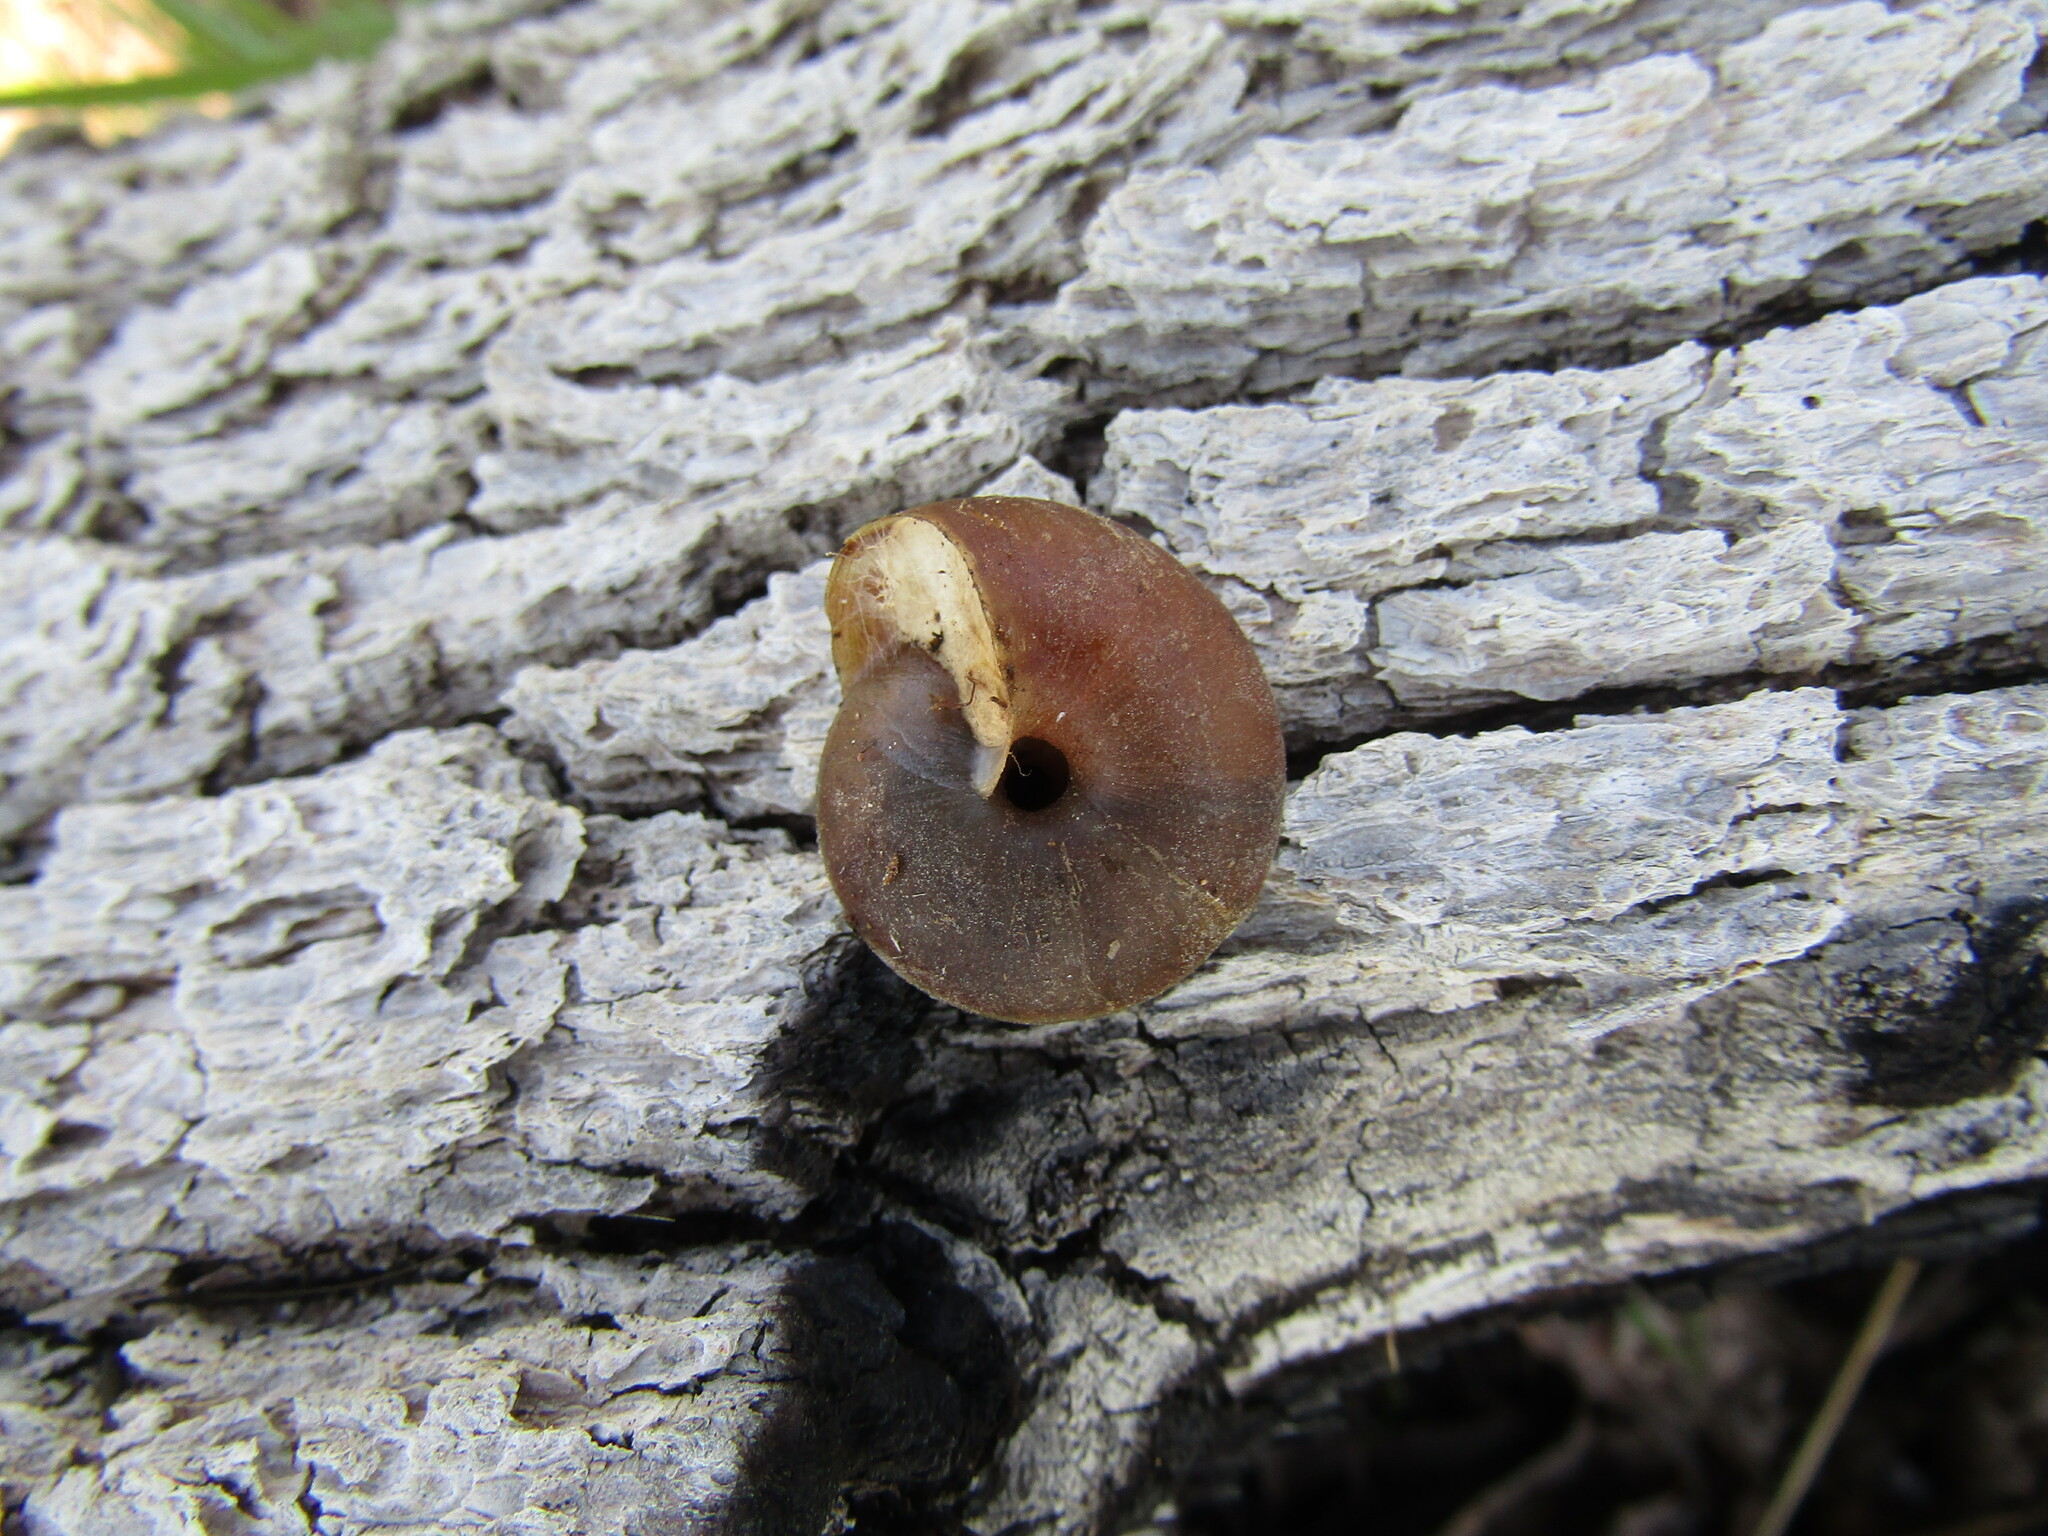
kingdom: Animalia
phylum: Mollusca
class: Gastropoda
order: Stylommatophora
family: Xanthonychidae
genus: Monadenia
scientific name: Monadenia churchi
